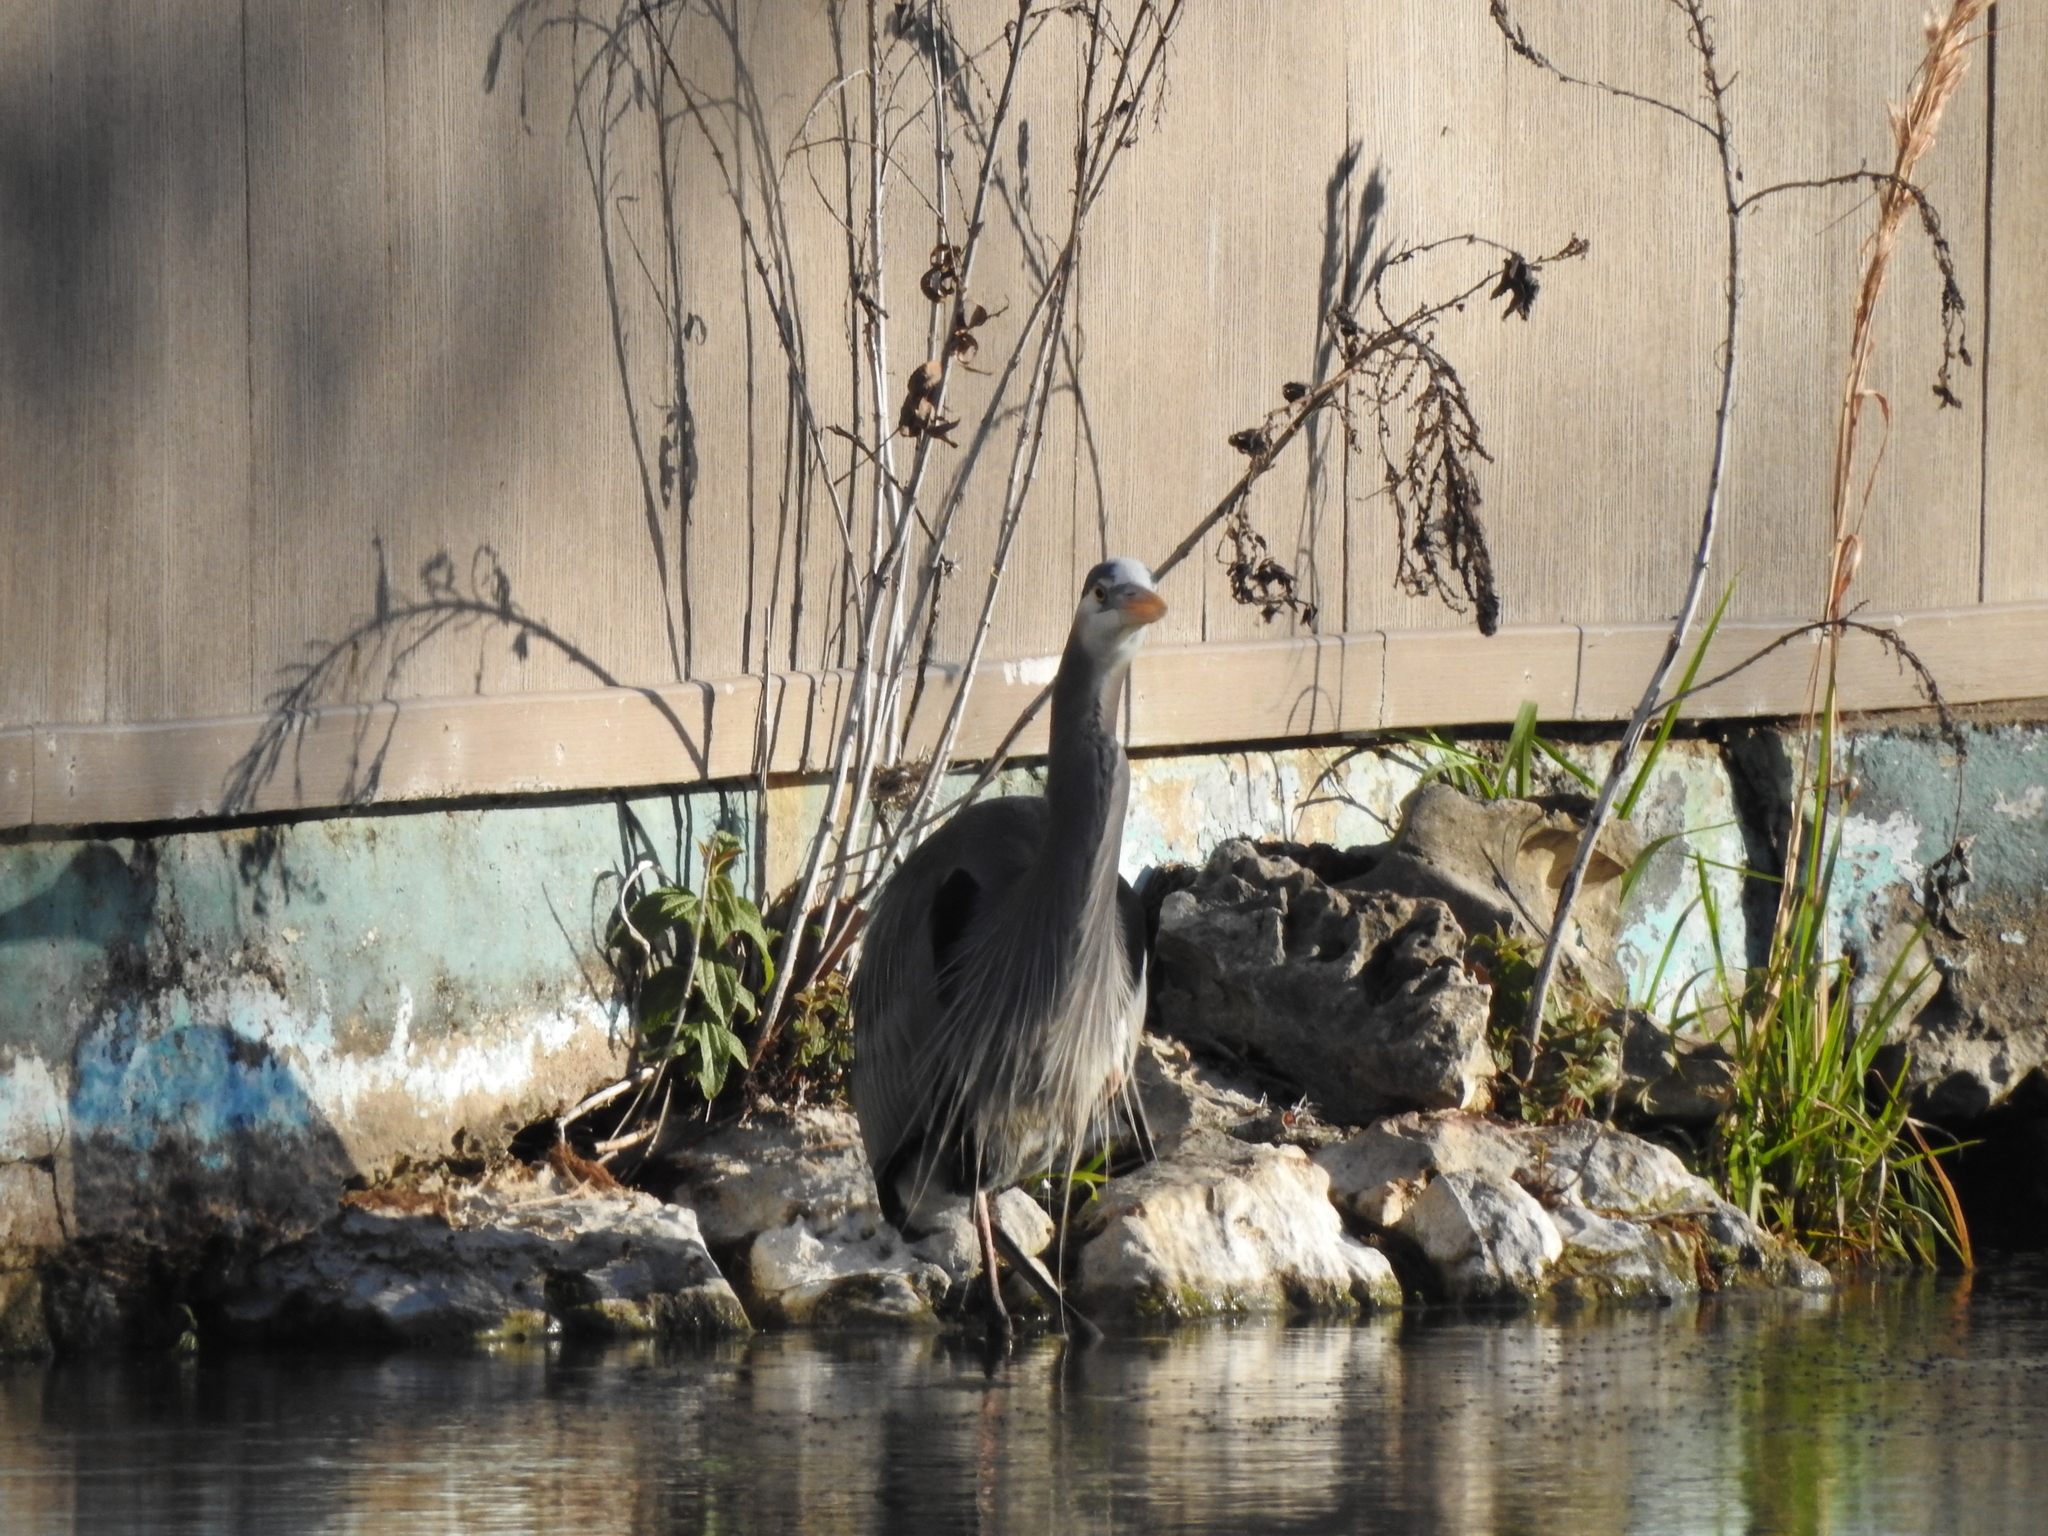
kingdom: Animalia
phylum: Chordata
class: Aves
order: Pelecaniformes
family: Ardeidae
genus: Ardea
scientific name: Ardea herodias
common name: Great blue heron
